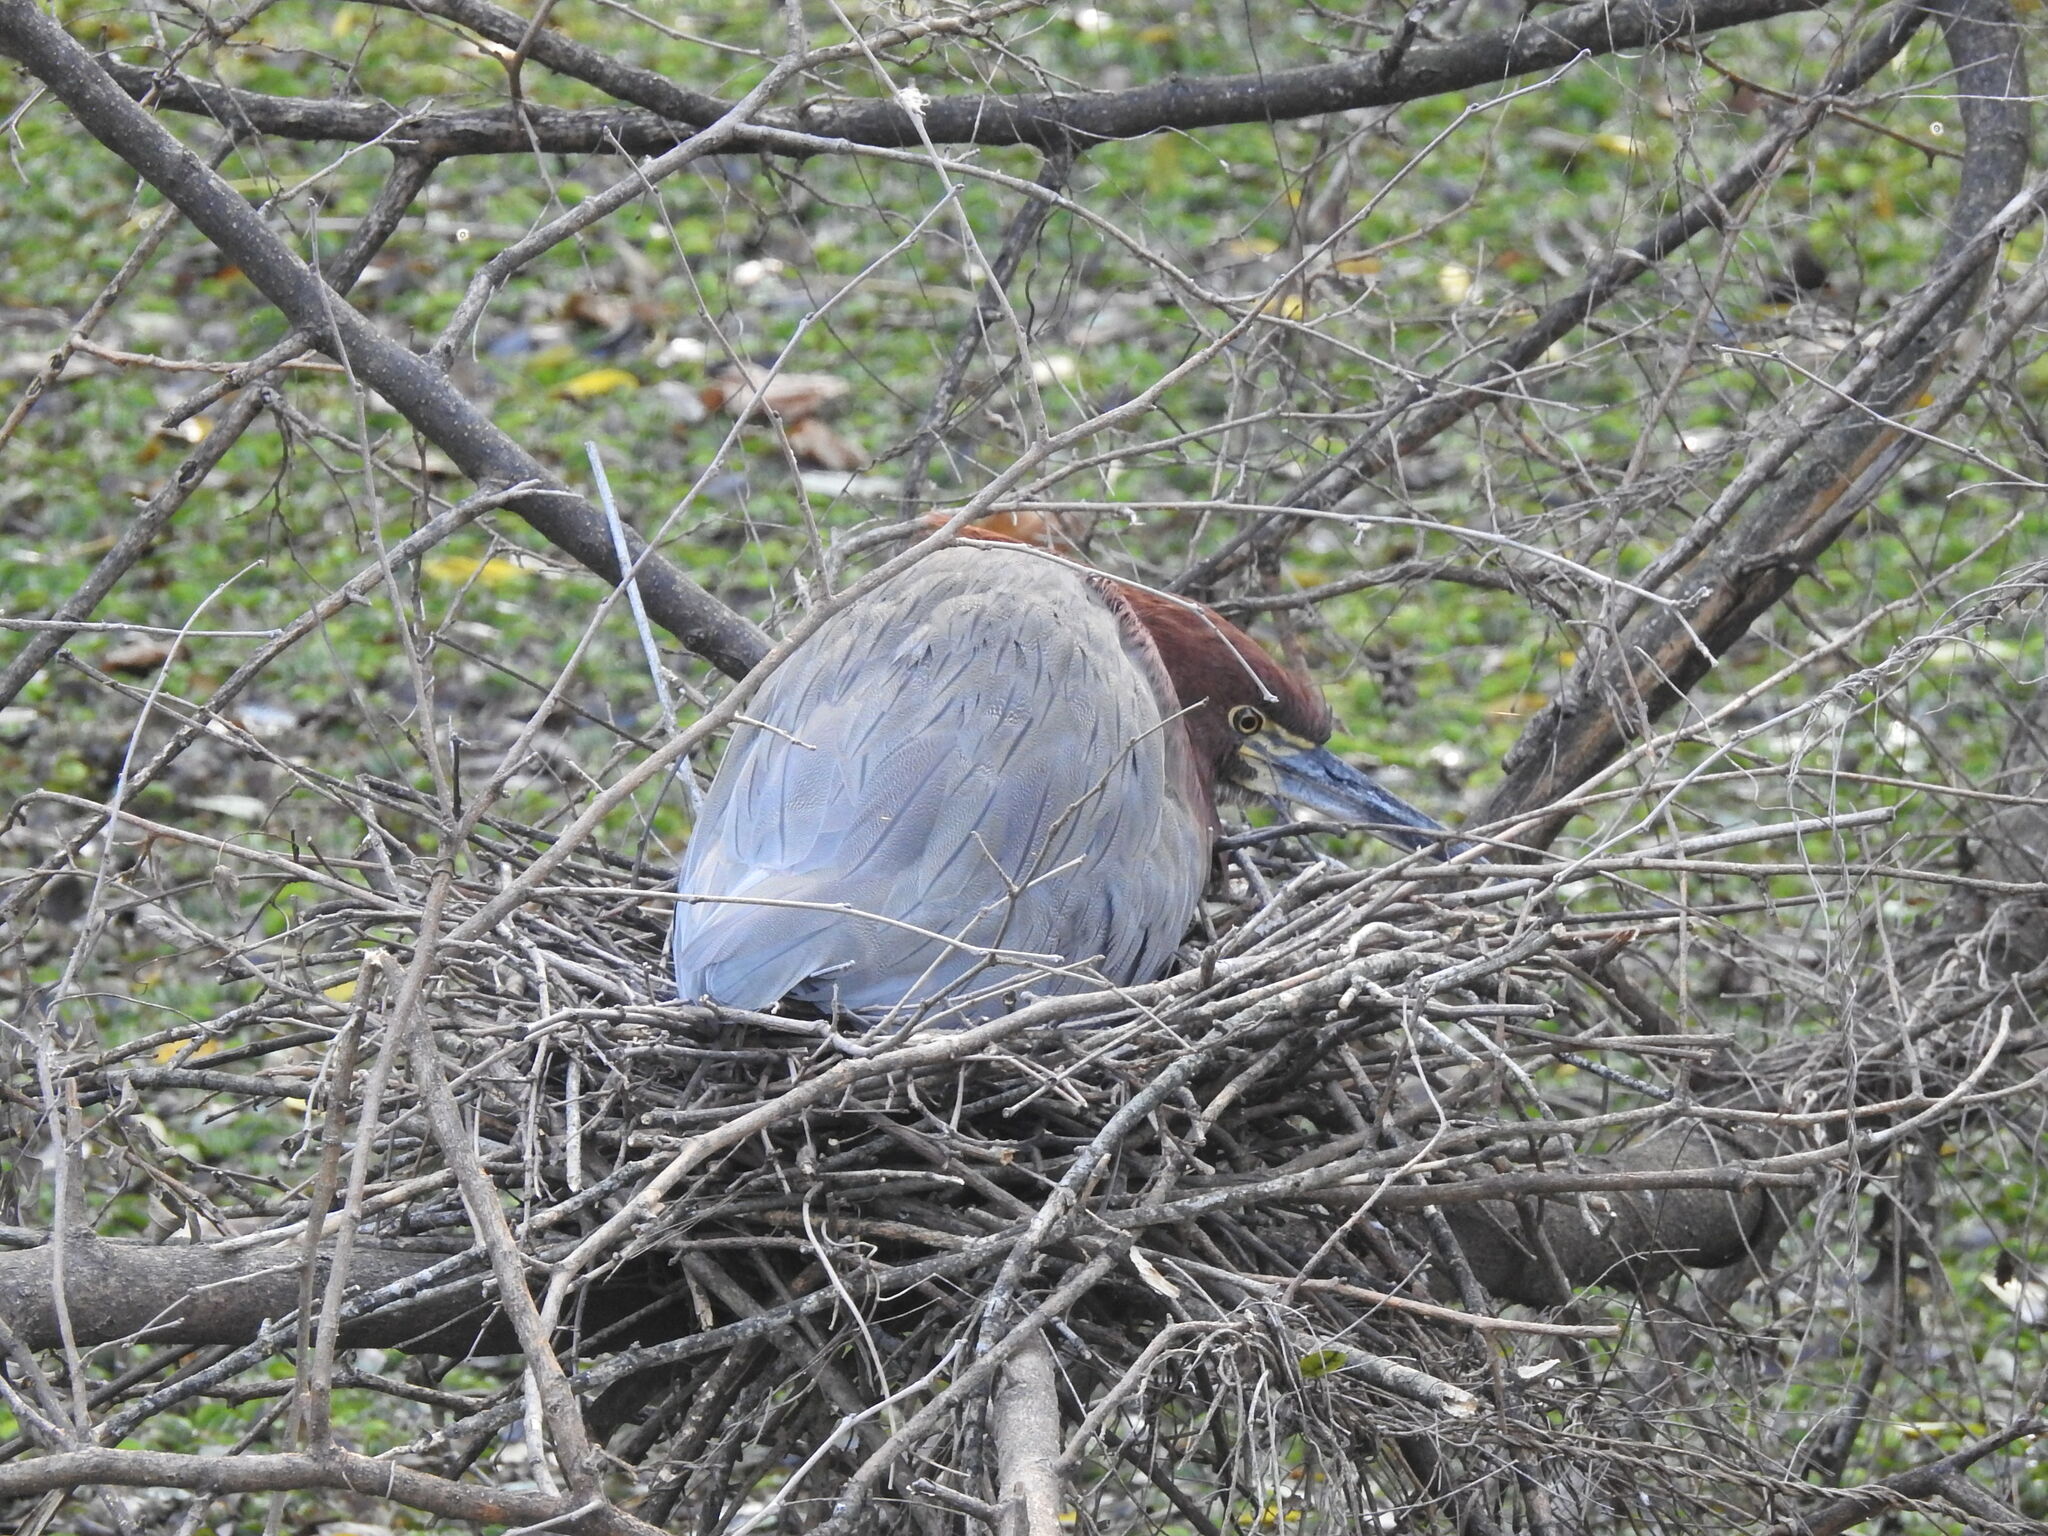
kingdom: Animalia
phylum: Chordata
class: Aves
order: Pelecaniformes
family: Ardeidae
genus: Tigrisoma
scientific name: Tigrisoma lineatum
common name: Rufescent tiger-heron
